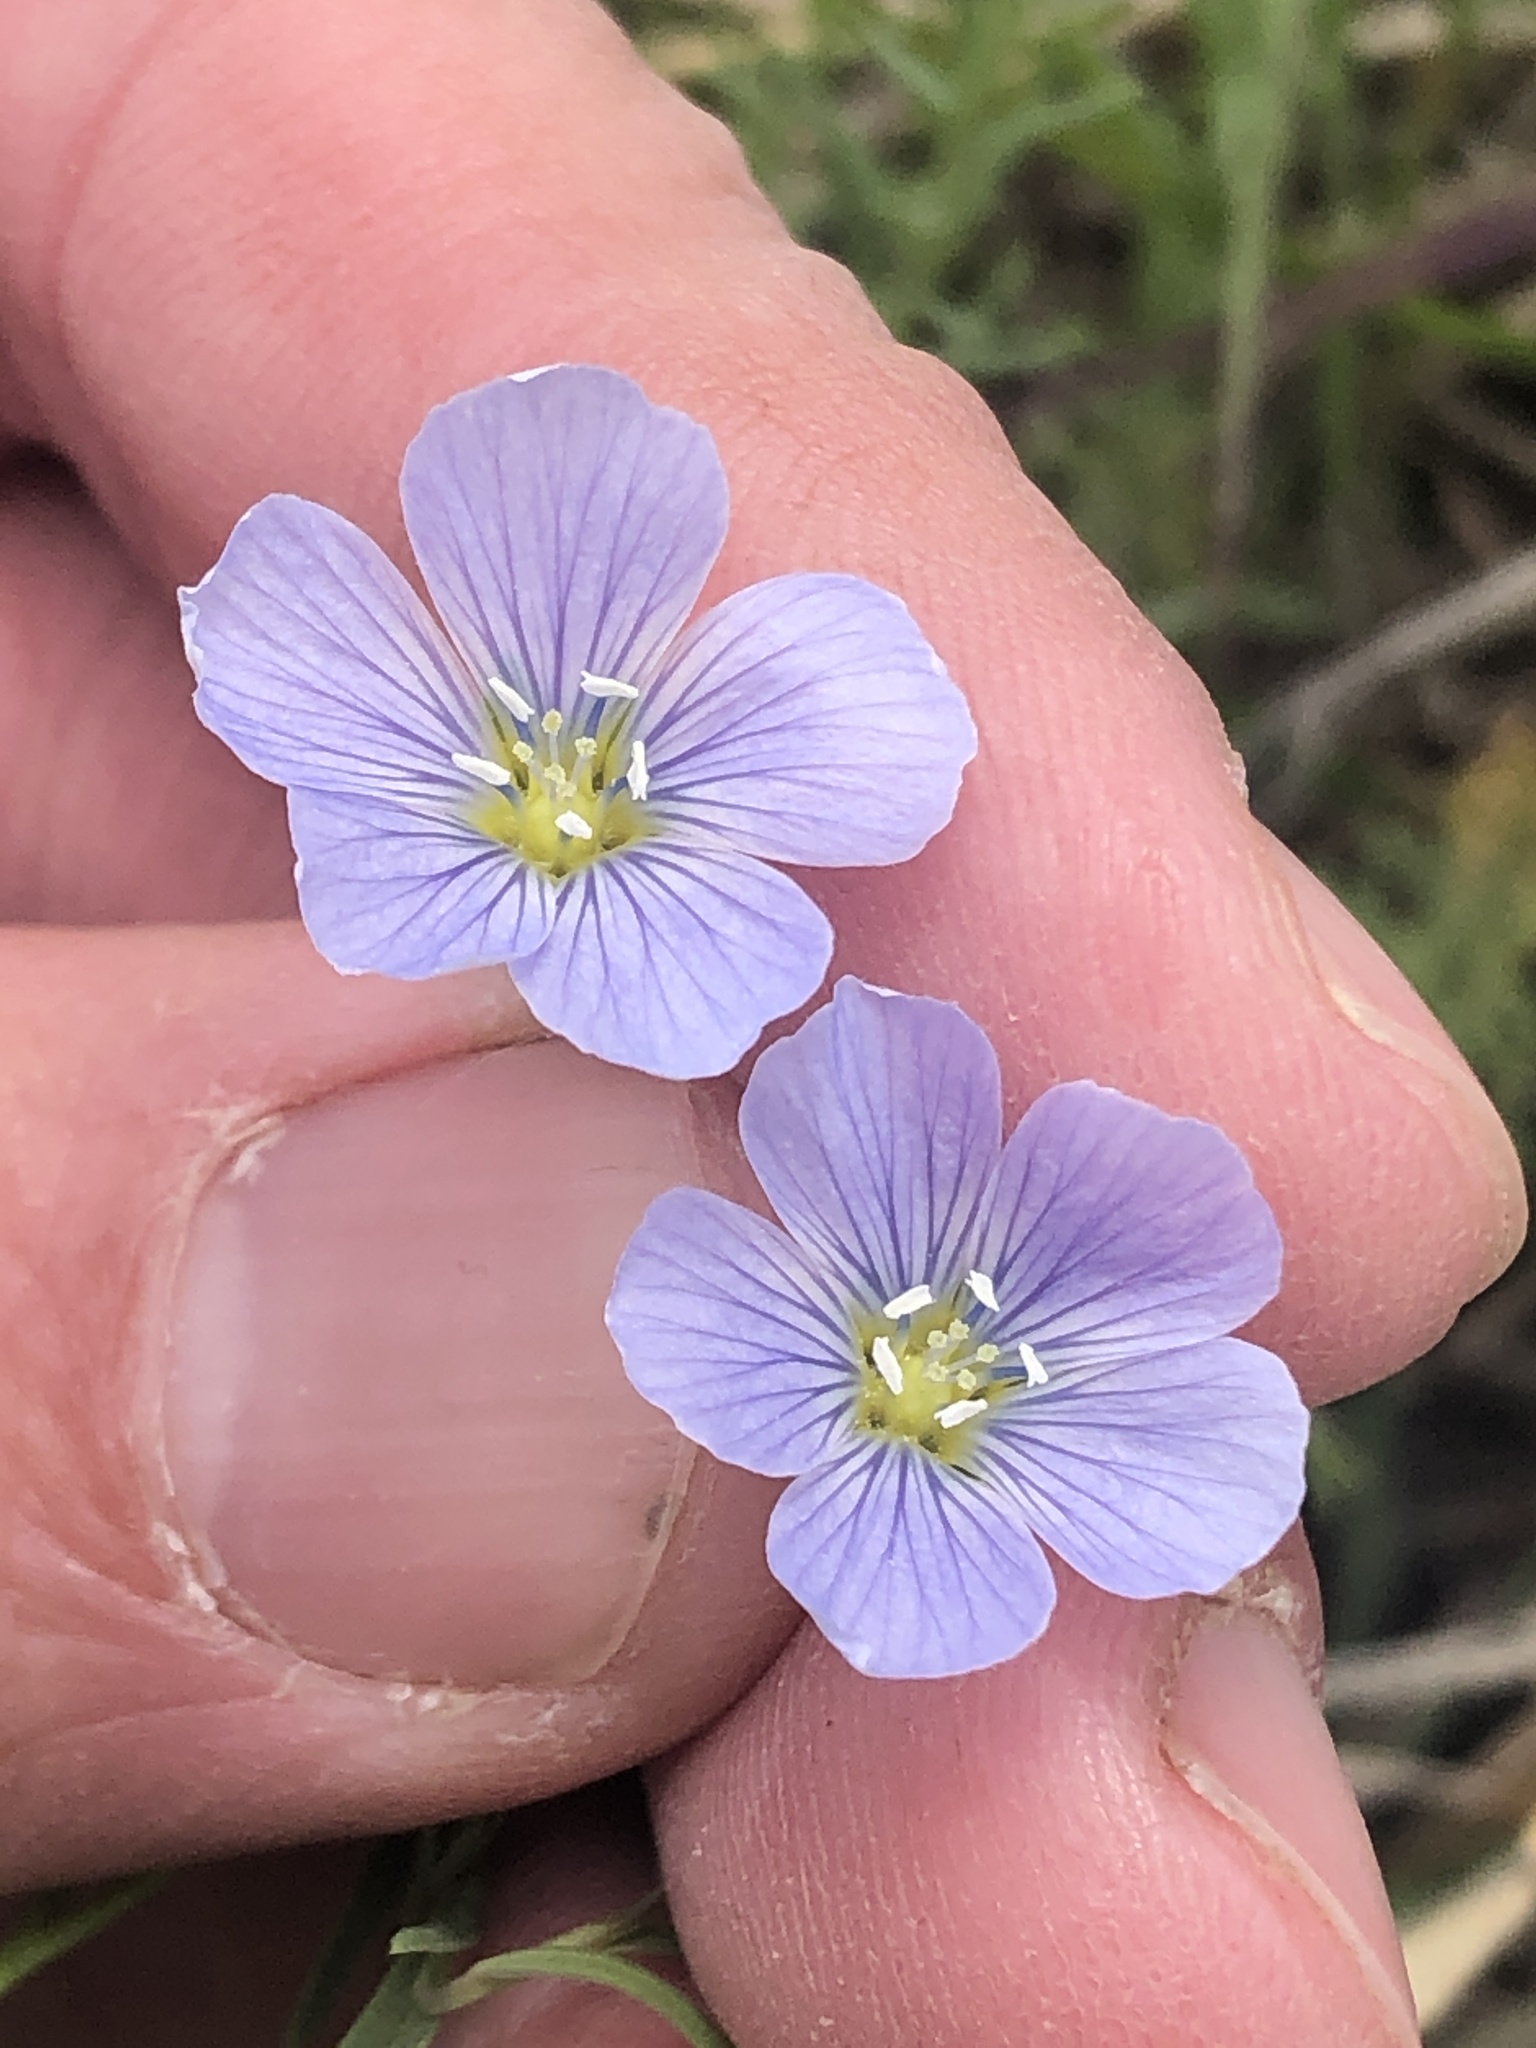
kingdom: Plantae
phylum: Tracheophyta
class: Magnoliopsida
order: Malpighiales
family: Linaceae
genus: Linum
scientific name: Linum pratense
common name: Norton's flax
